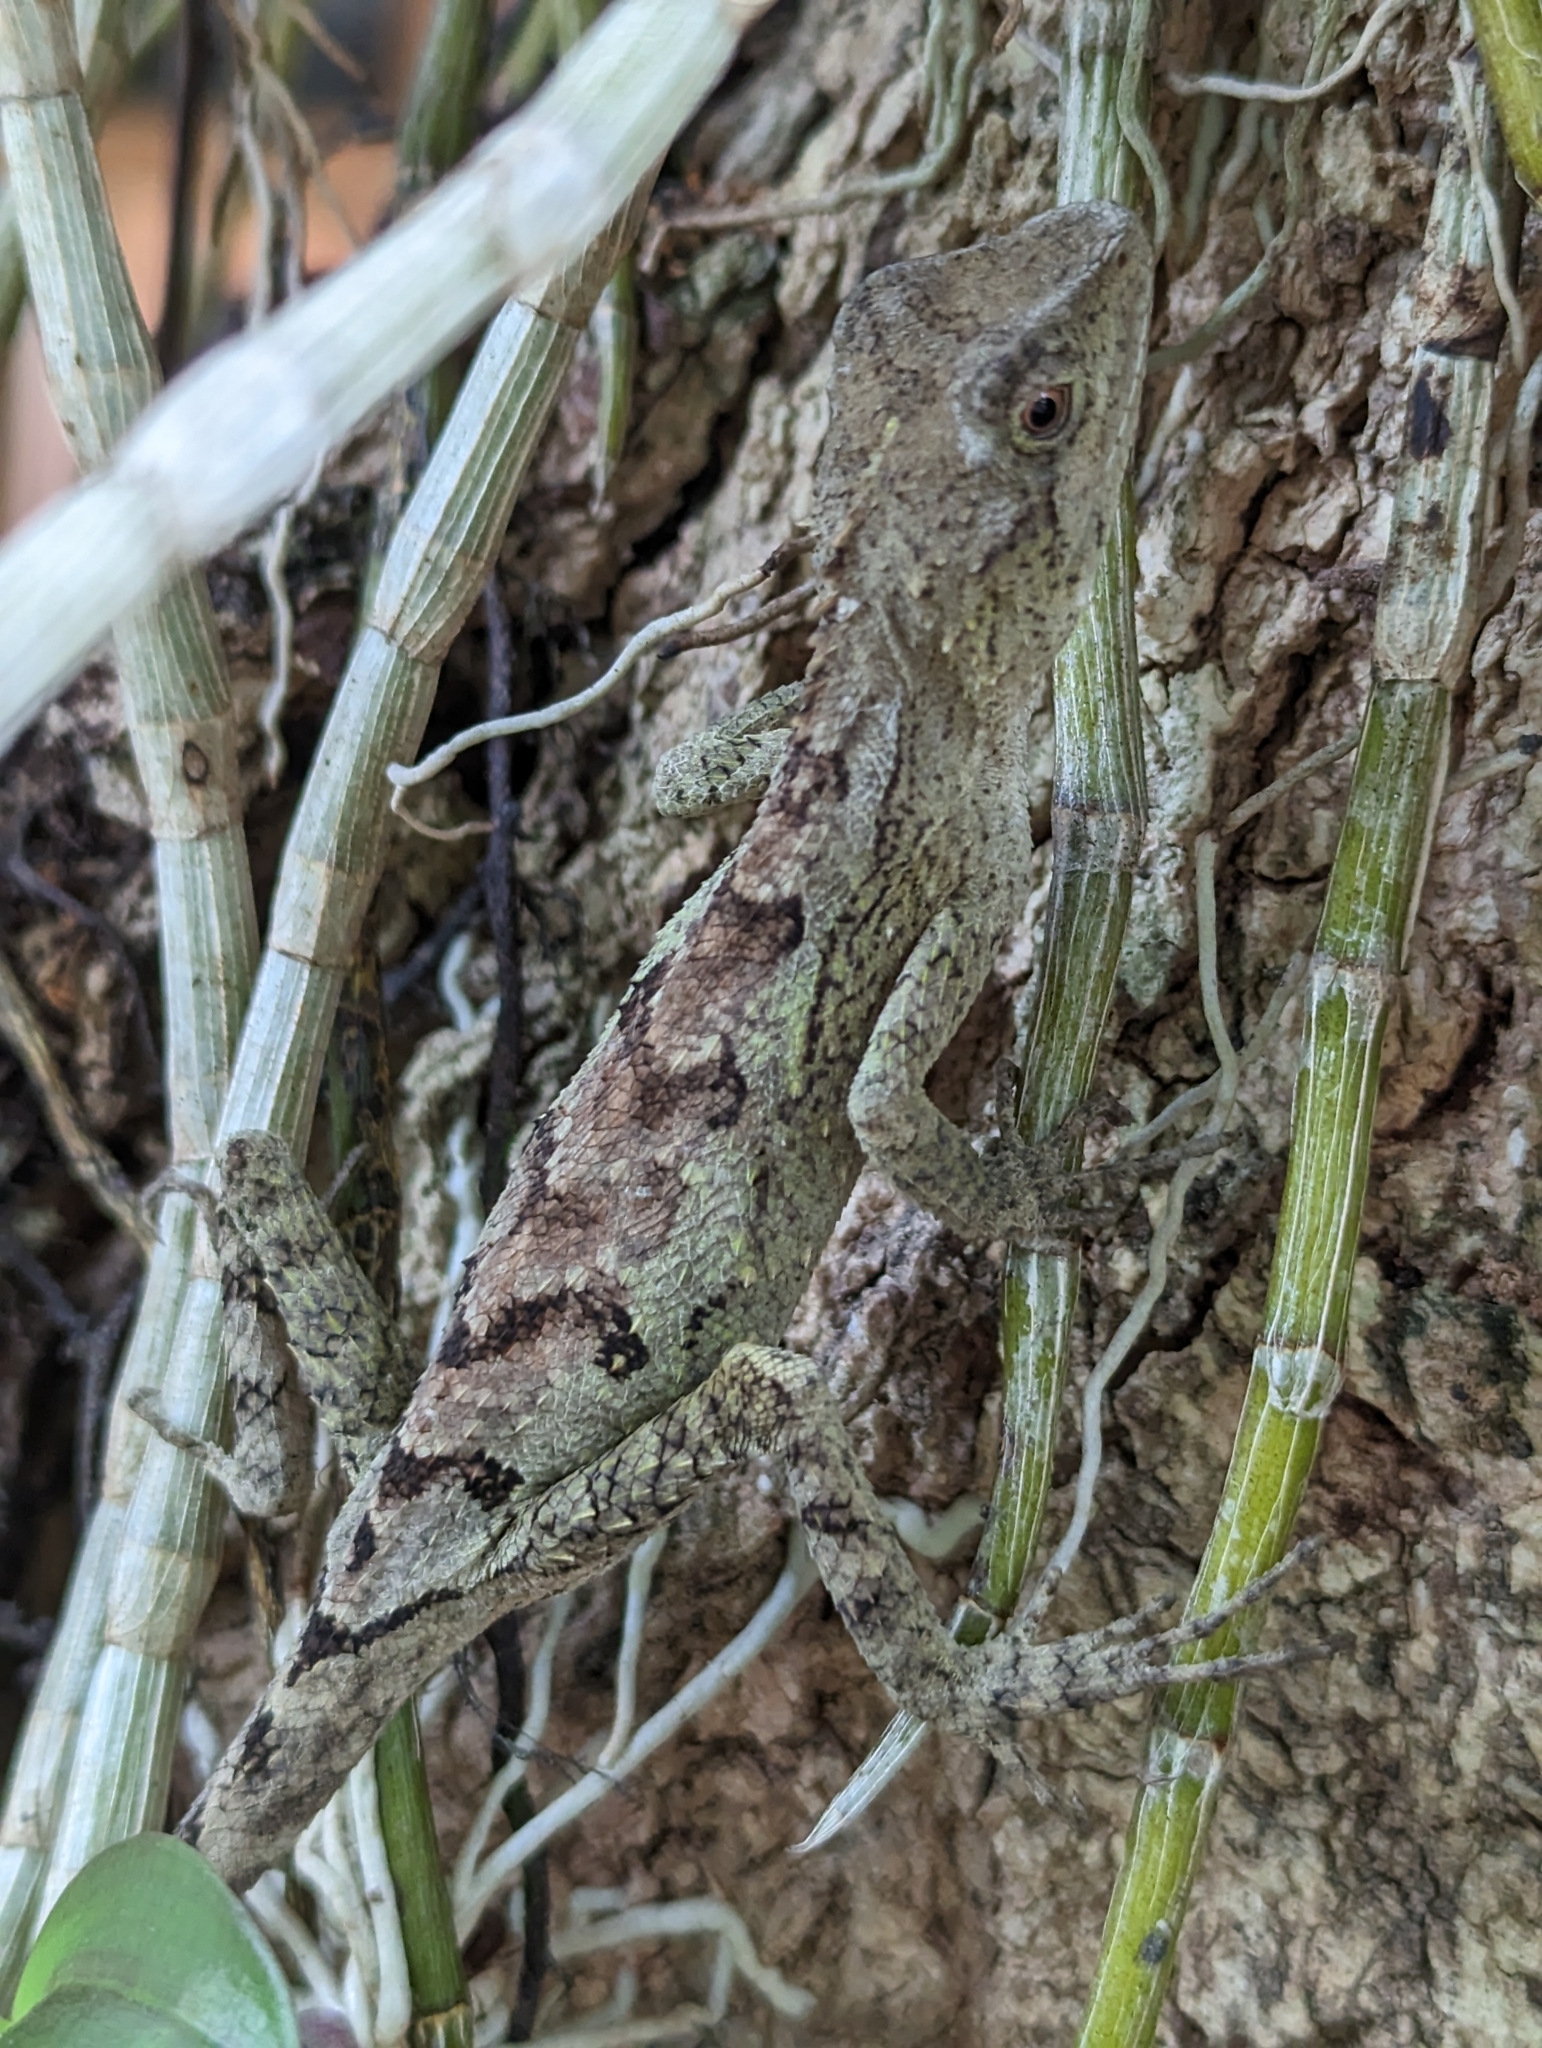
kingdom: Animalia
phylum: Chordata
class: Squamata
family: Agamidae
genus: Diploderma
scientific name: Diploderma swinhonis
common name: Taiwan japalure
